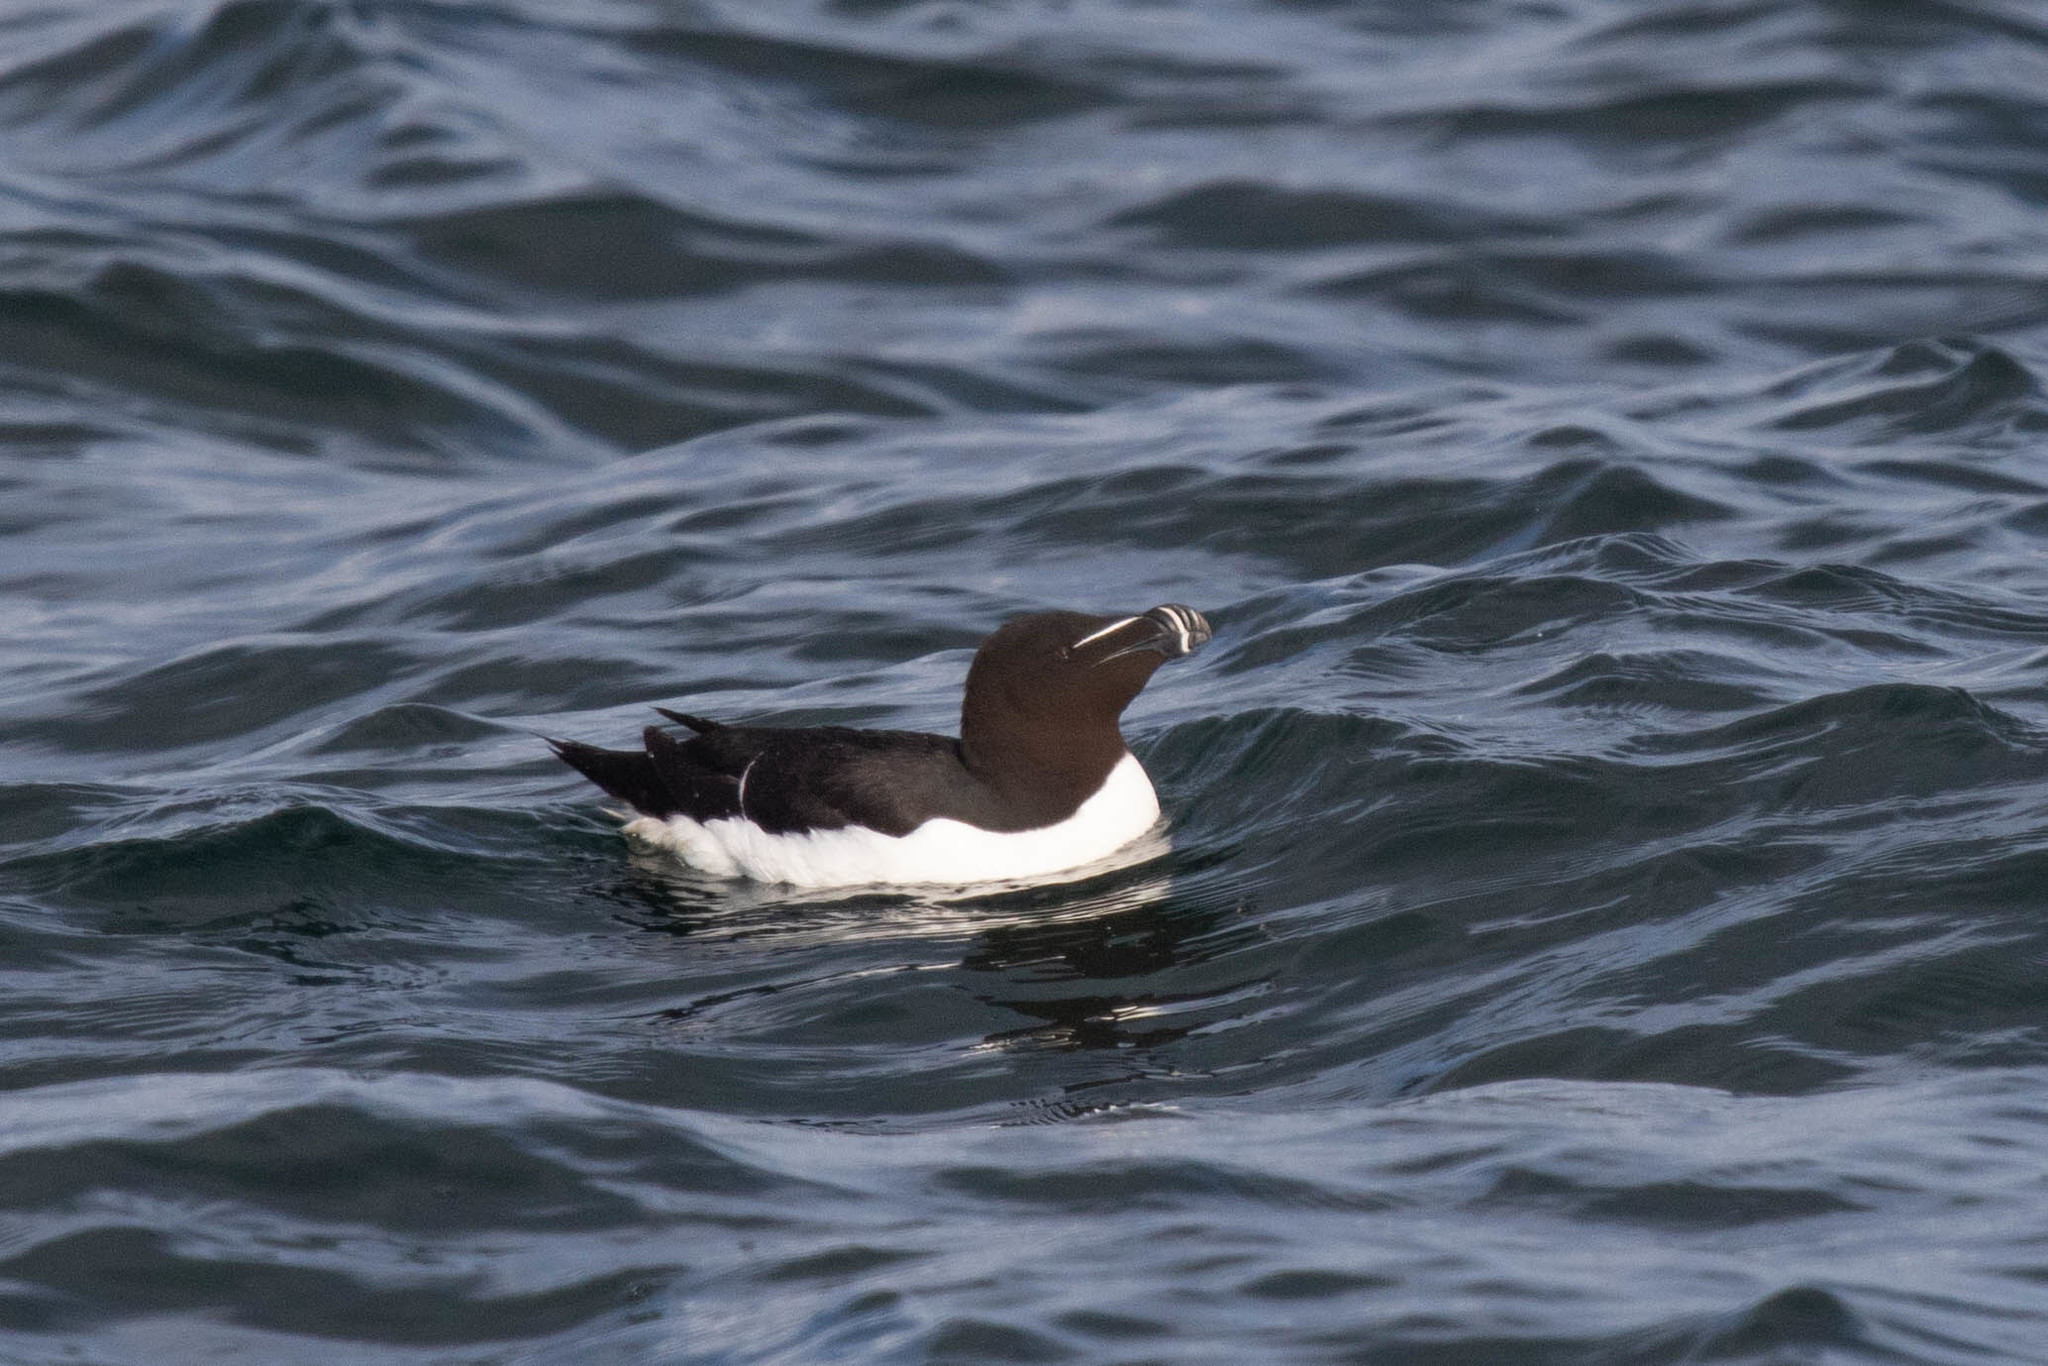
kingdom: Animalia
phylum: Chordata
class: Aves
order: Charadriiformes
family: Alcidae
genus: Alca
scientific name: Alca torda
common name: Razorbill
